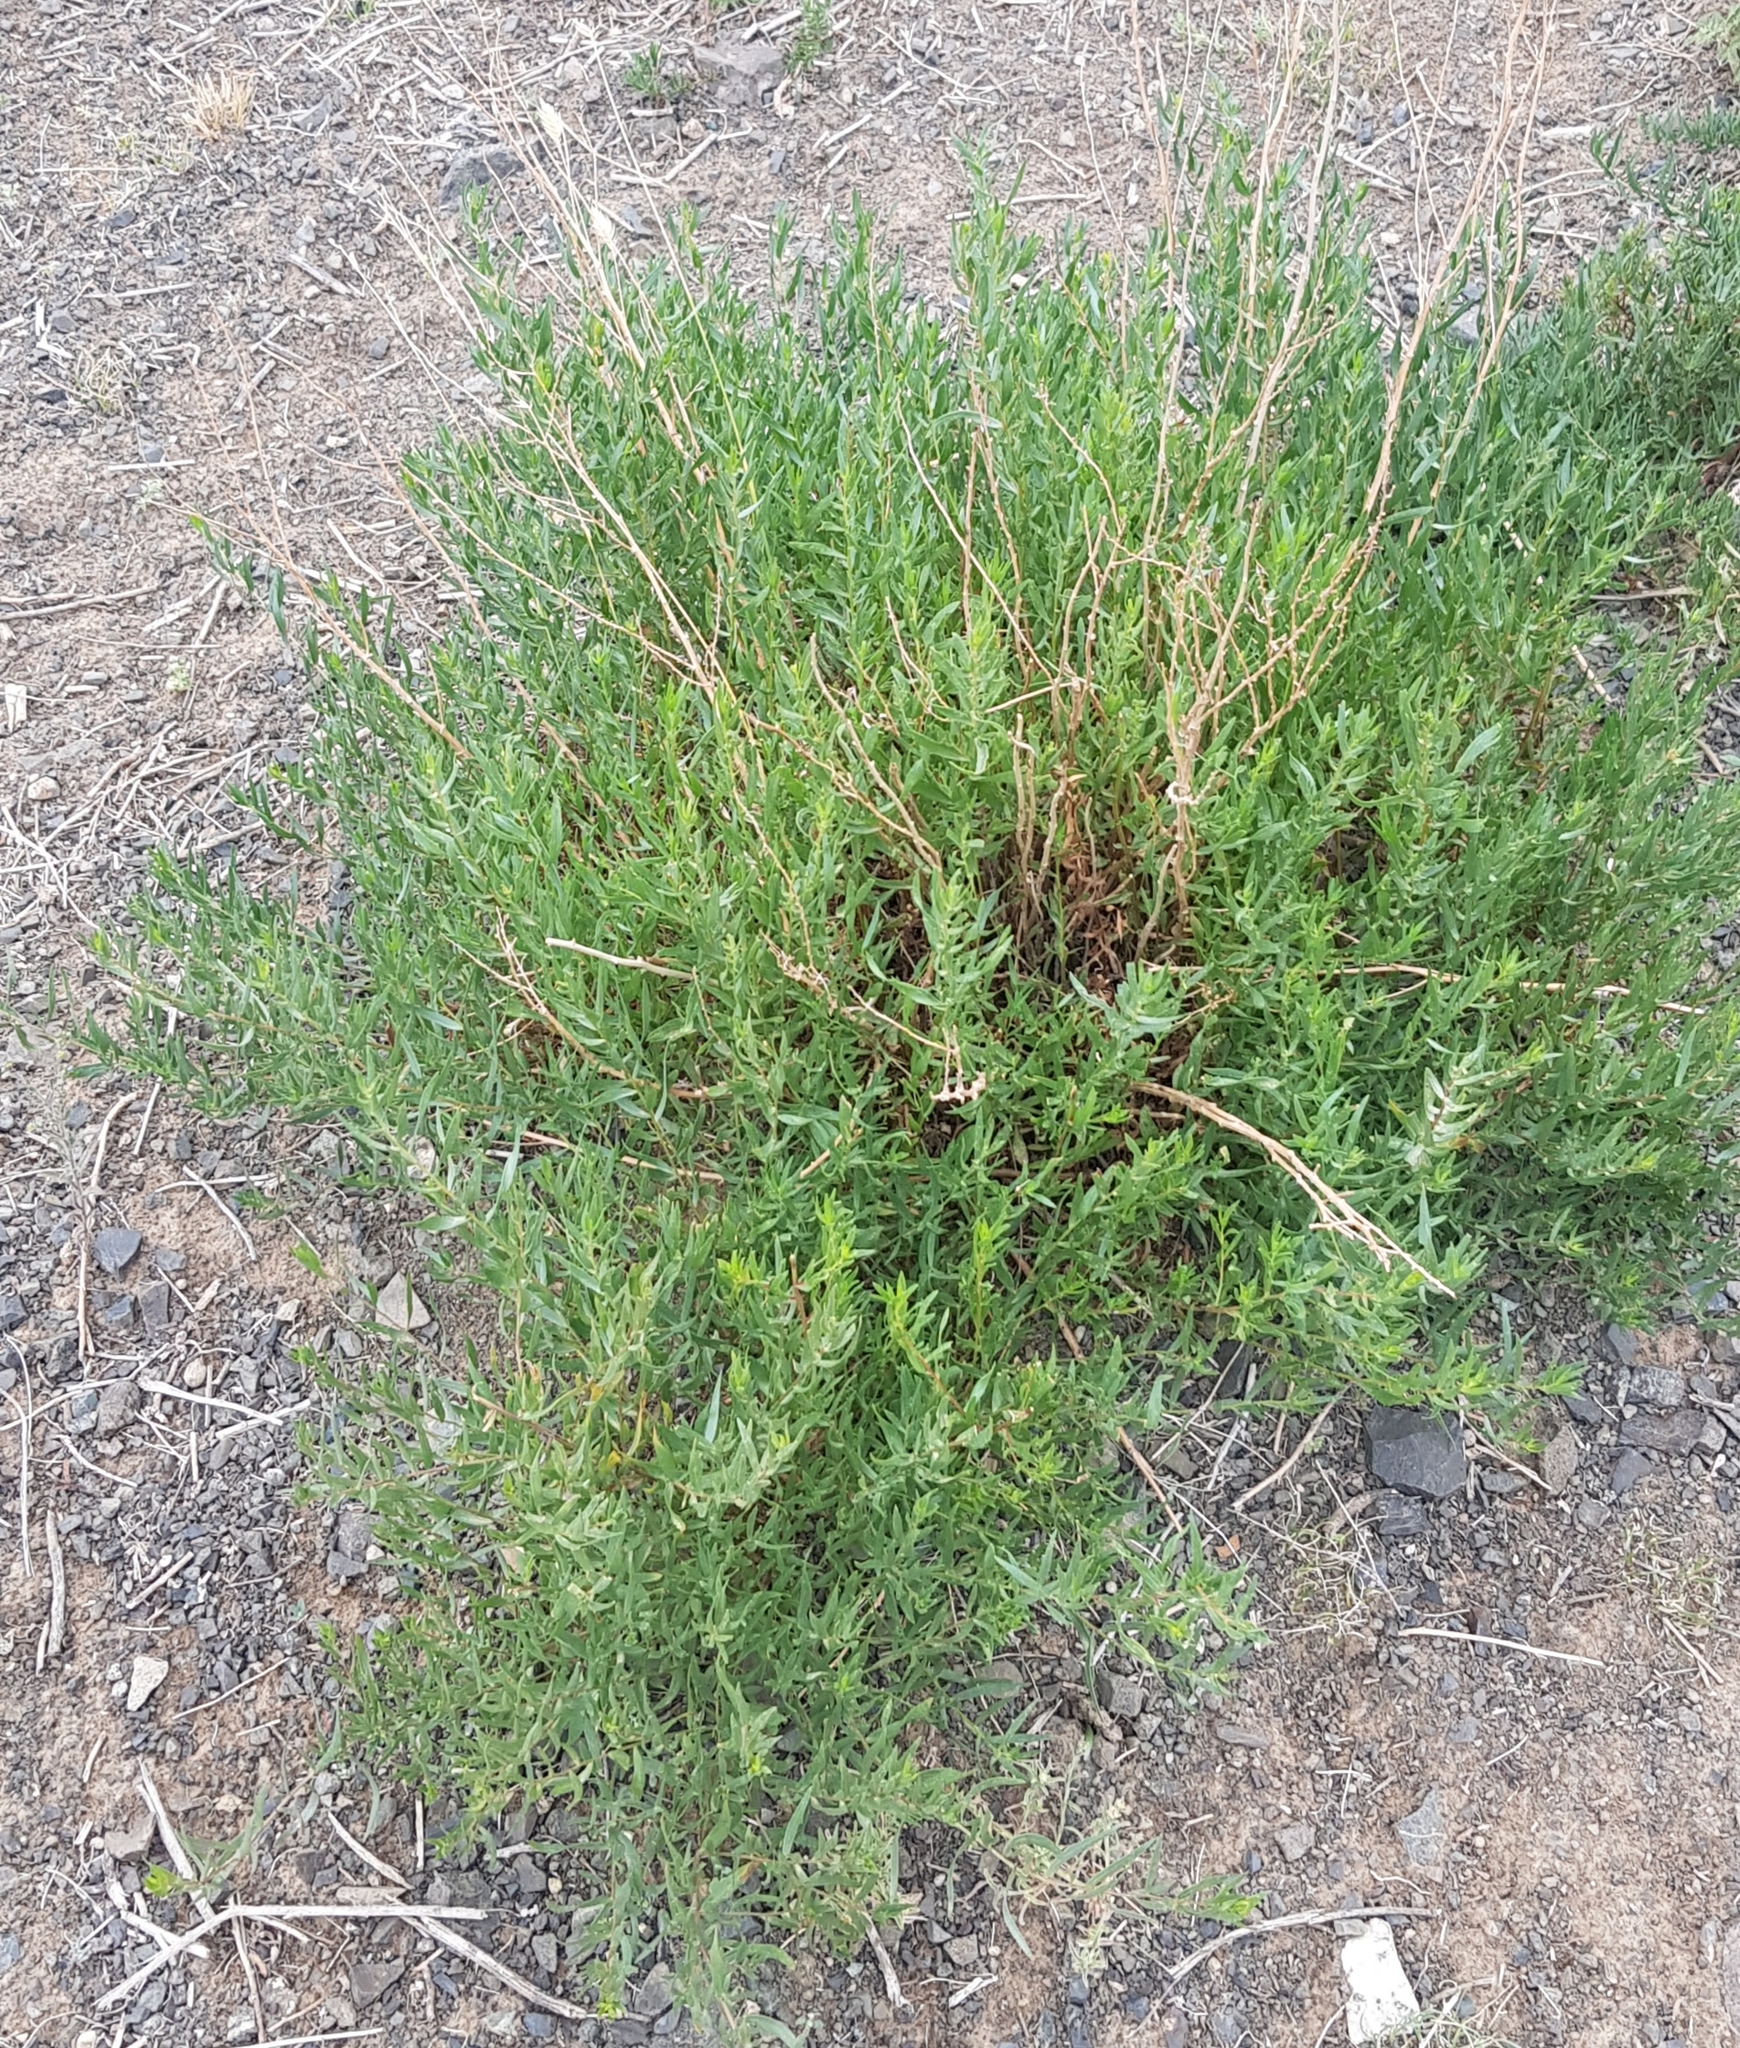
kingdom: Plantae
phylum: Tracheophyta
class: Magnoliopsida
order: Asterales
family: Asteraceae
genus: Artemisia
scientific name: Artemisia dracunculus
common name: Tarragon
